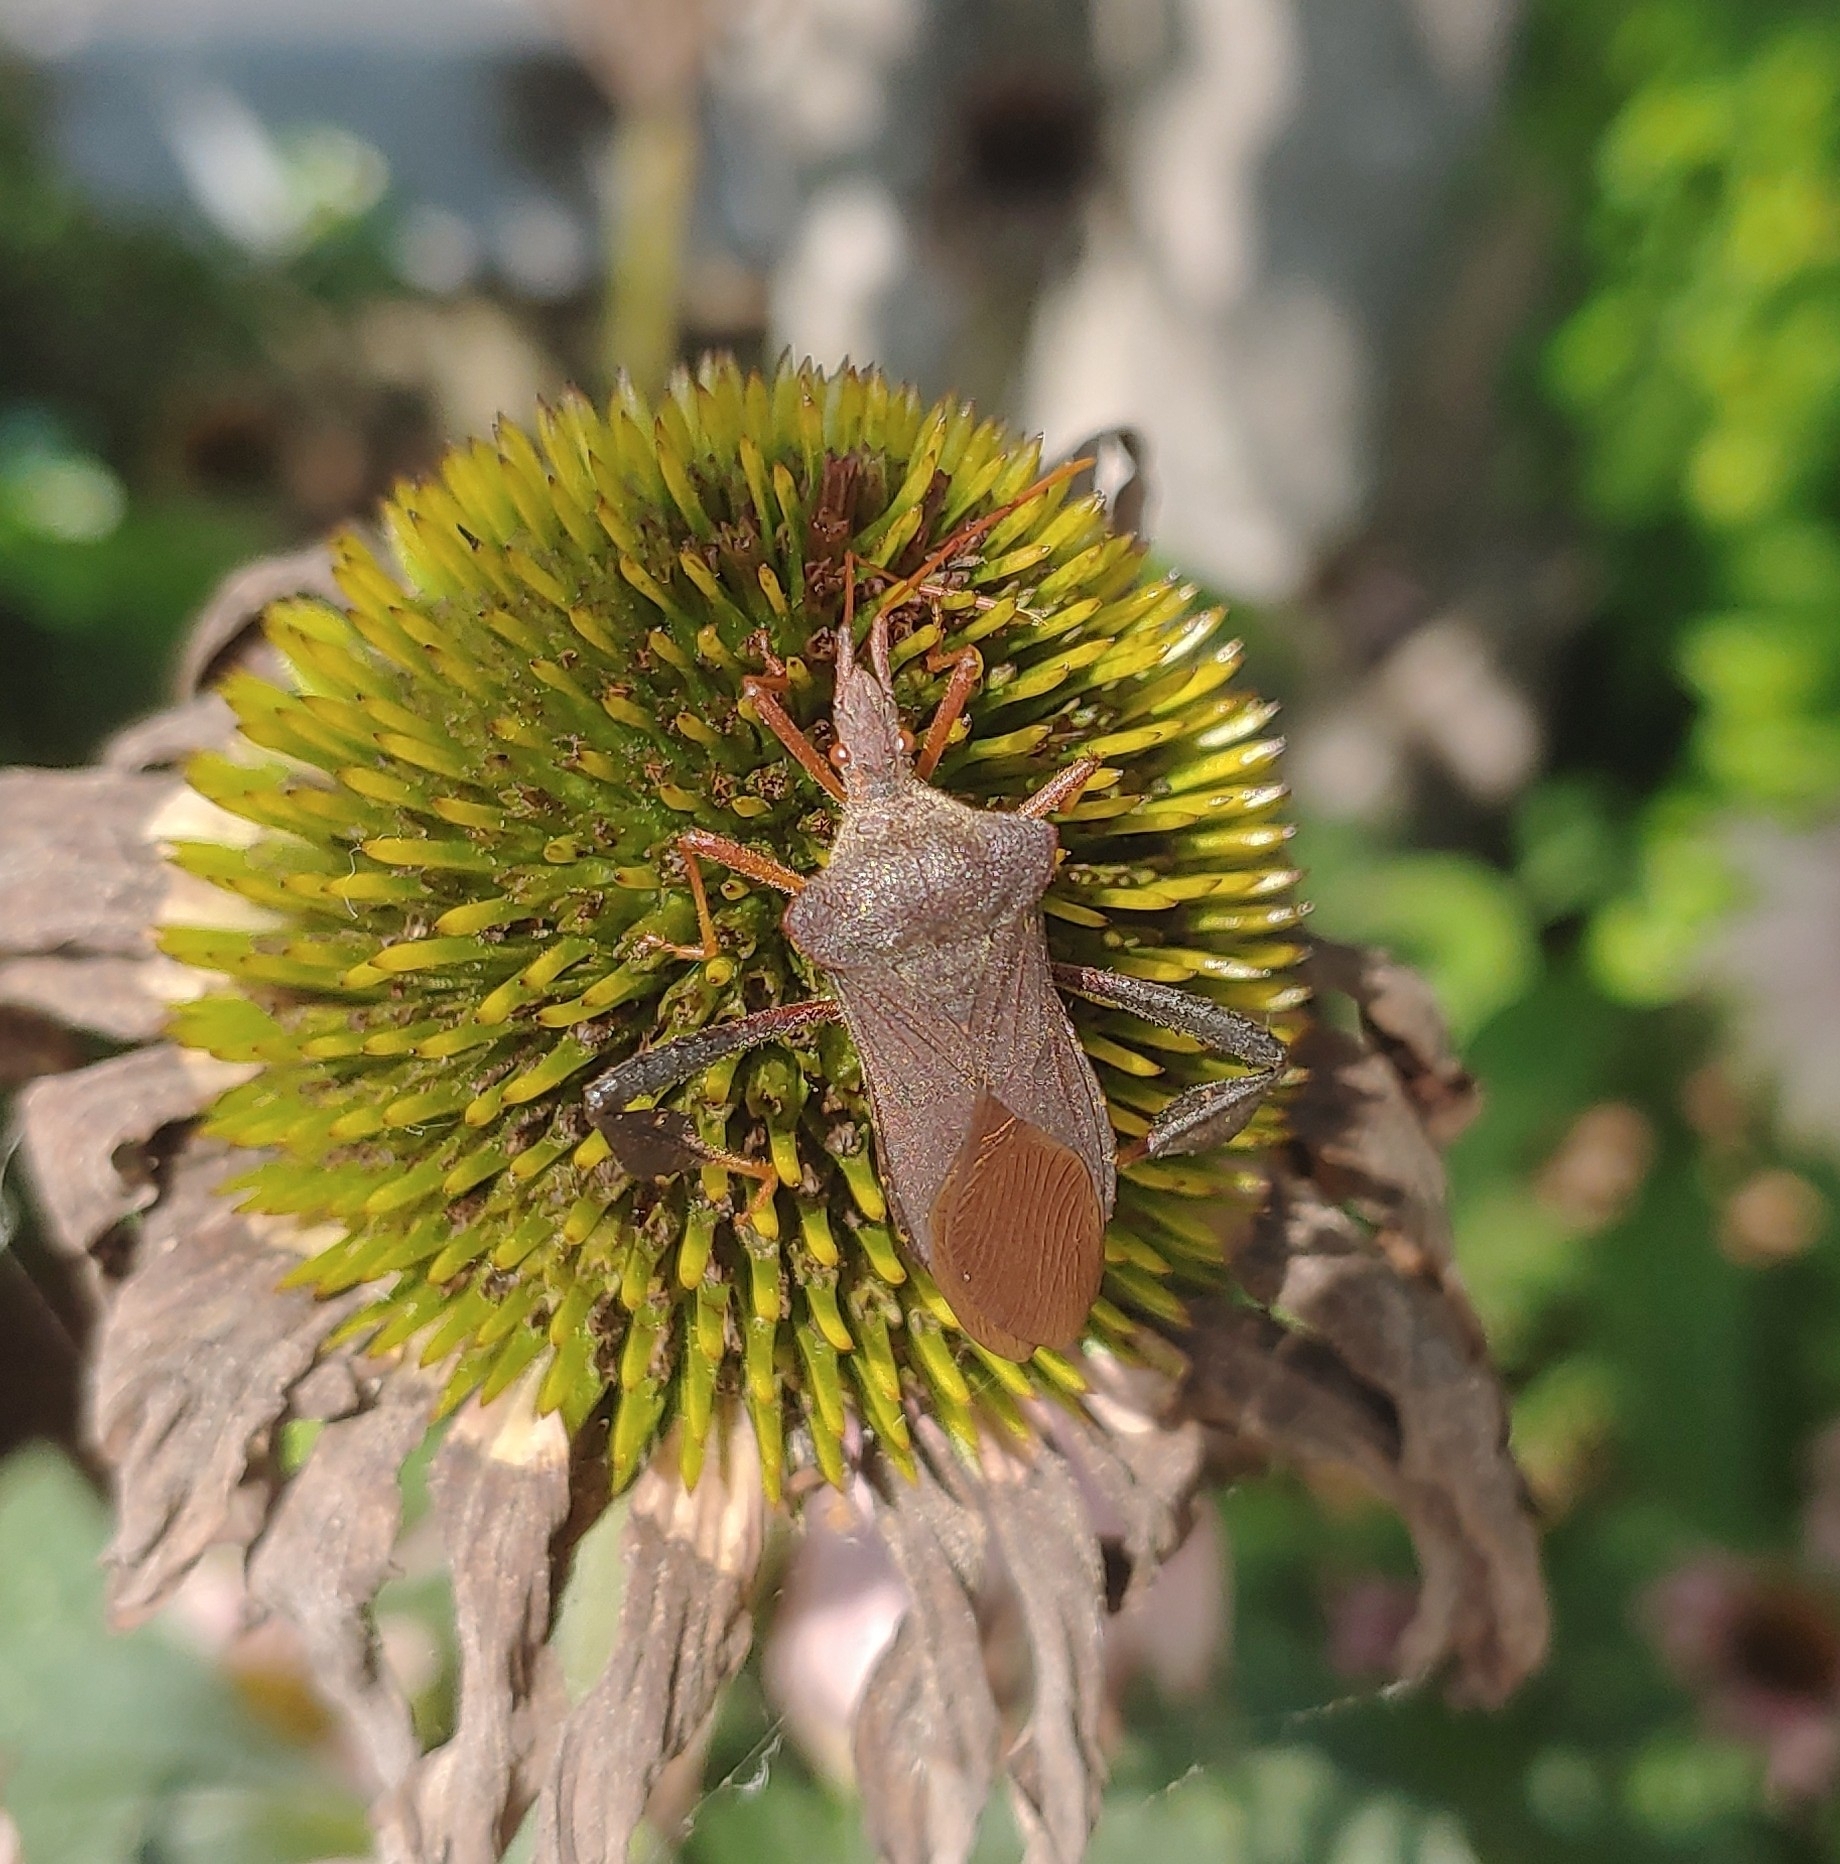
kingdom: Animalia
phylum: Arthropoda
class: Insecta
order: Hemiptera
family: Coreidae
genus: Leptoglossus
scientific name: Leptoglossus fulvicornis
